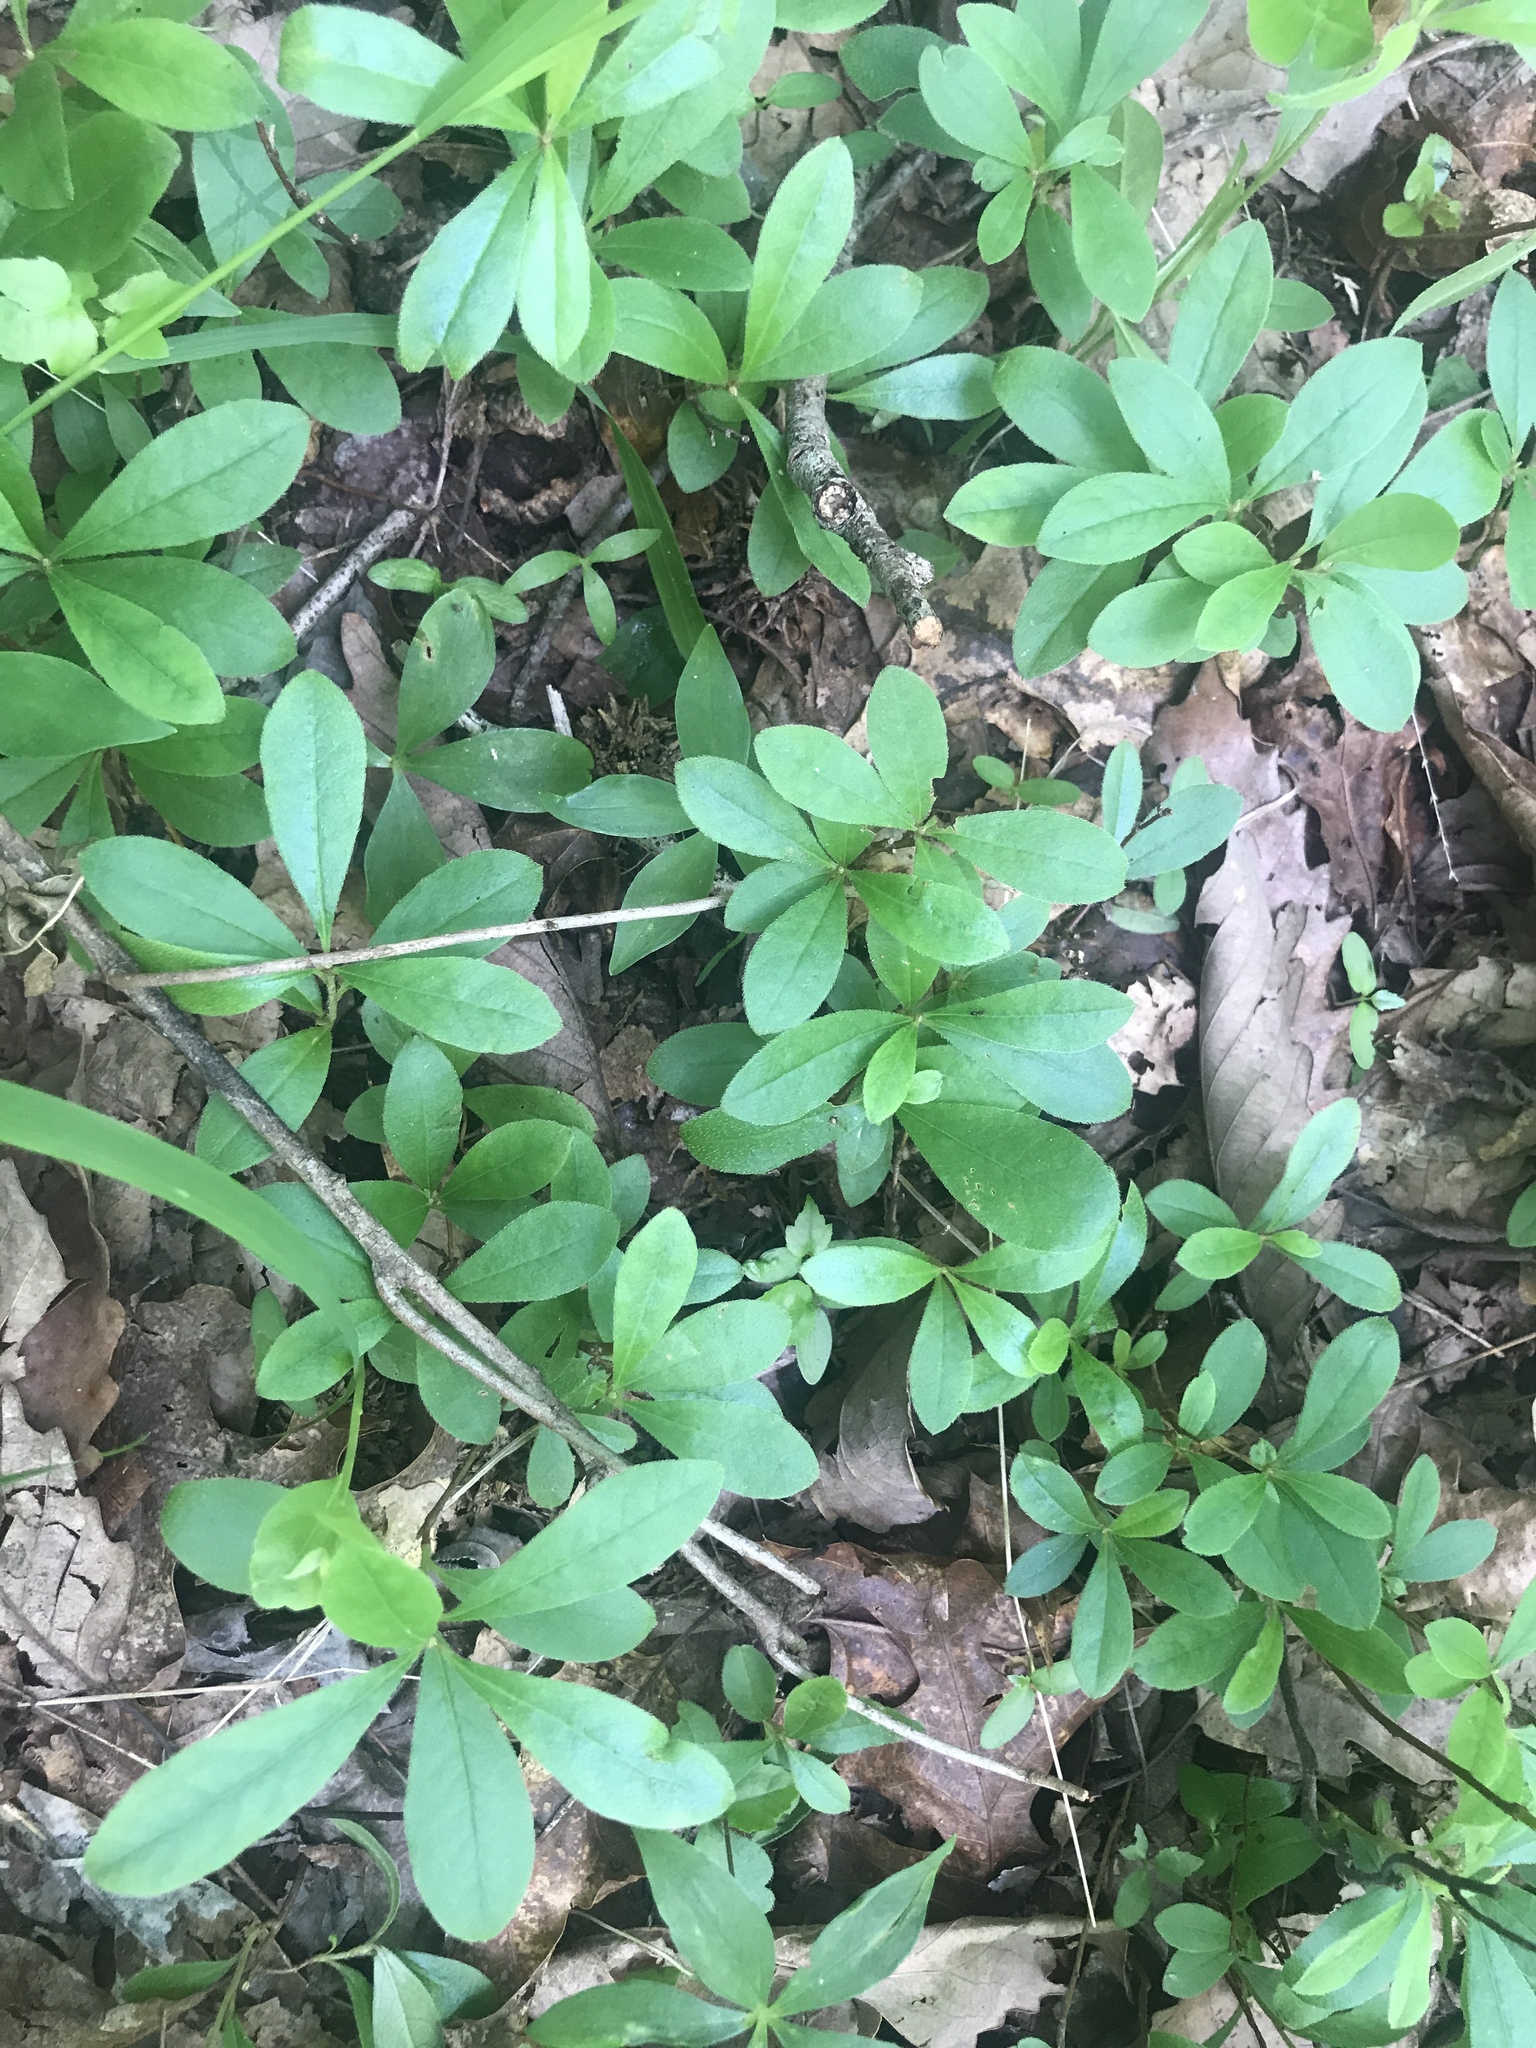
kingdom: Plantae
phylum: Tracheophyta
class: Magnoliopsida
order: Ericales
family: Ericaceae
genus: Rhododendron
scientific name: Rhododendron viscosum
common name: Clammy azalea
